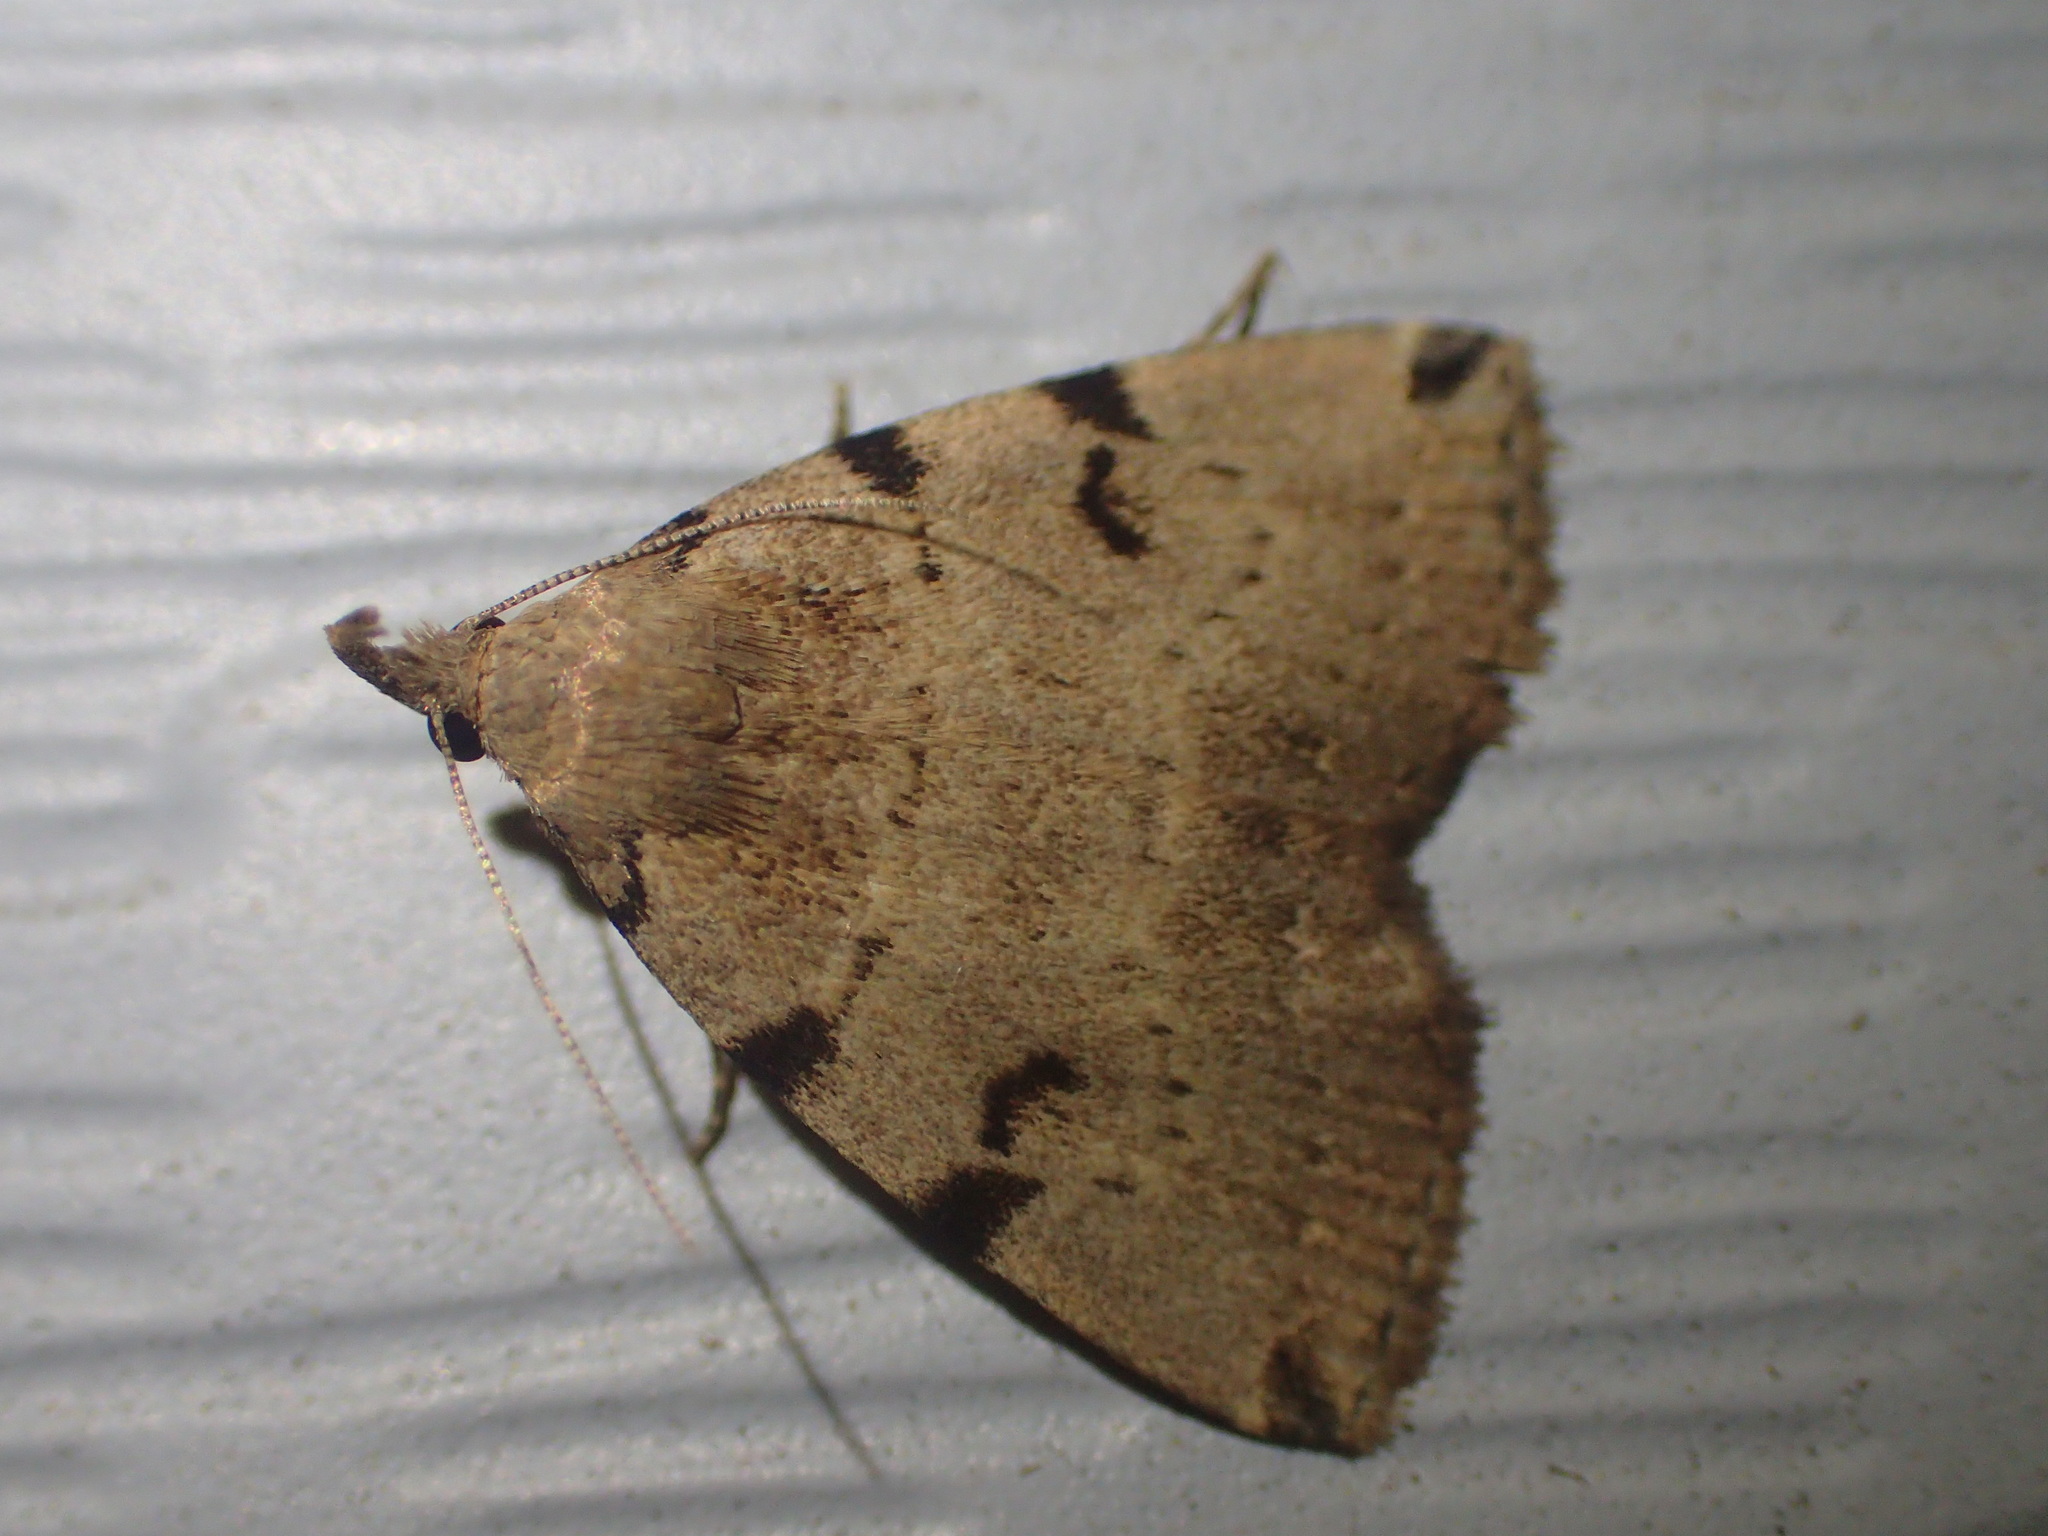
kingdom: Animalia
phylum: Arthropoda
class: Insecta
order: Lepidoptera
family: Erebidae
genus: Zanclognatha
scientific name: Zanclognatha lituralis
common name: Lettered fan-foot
